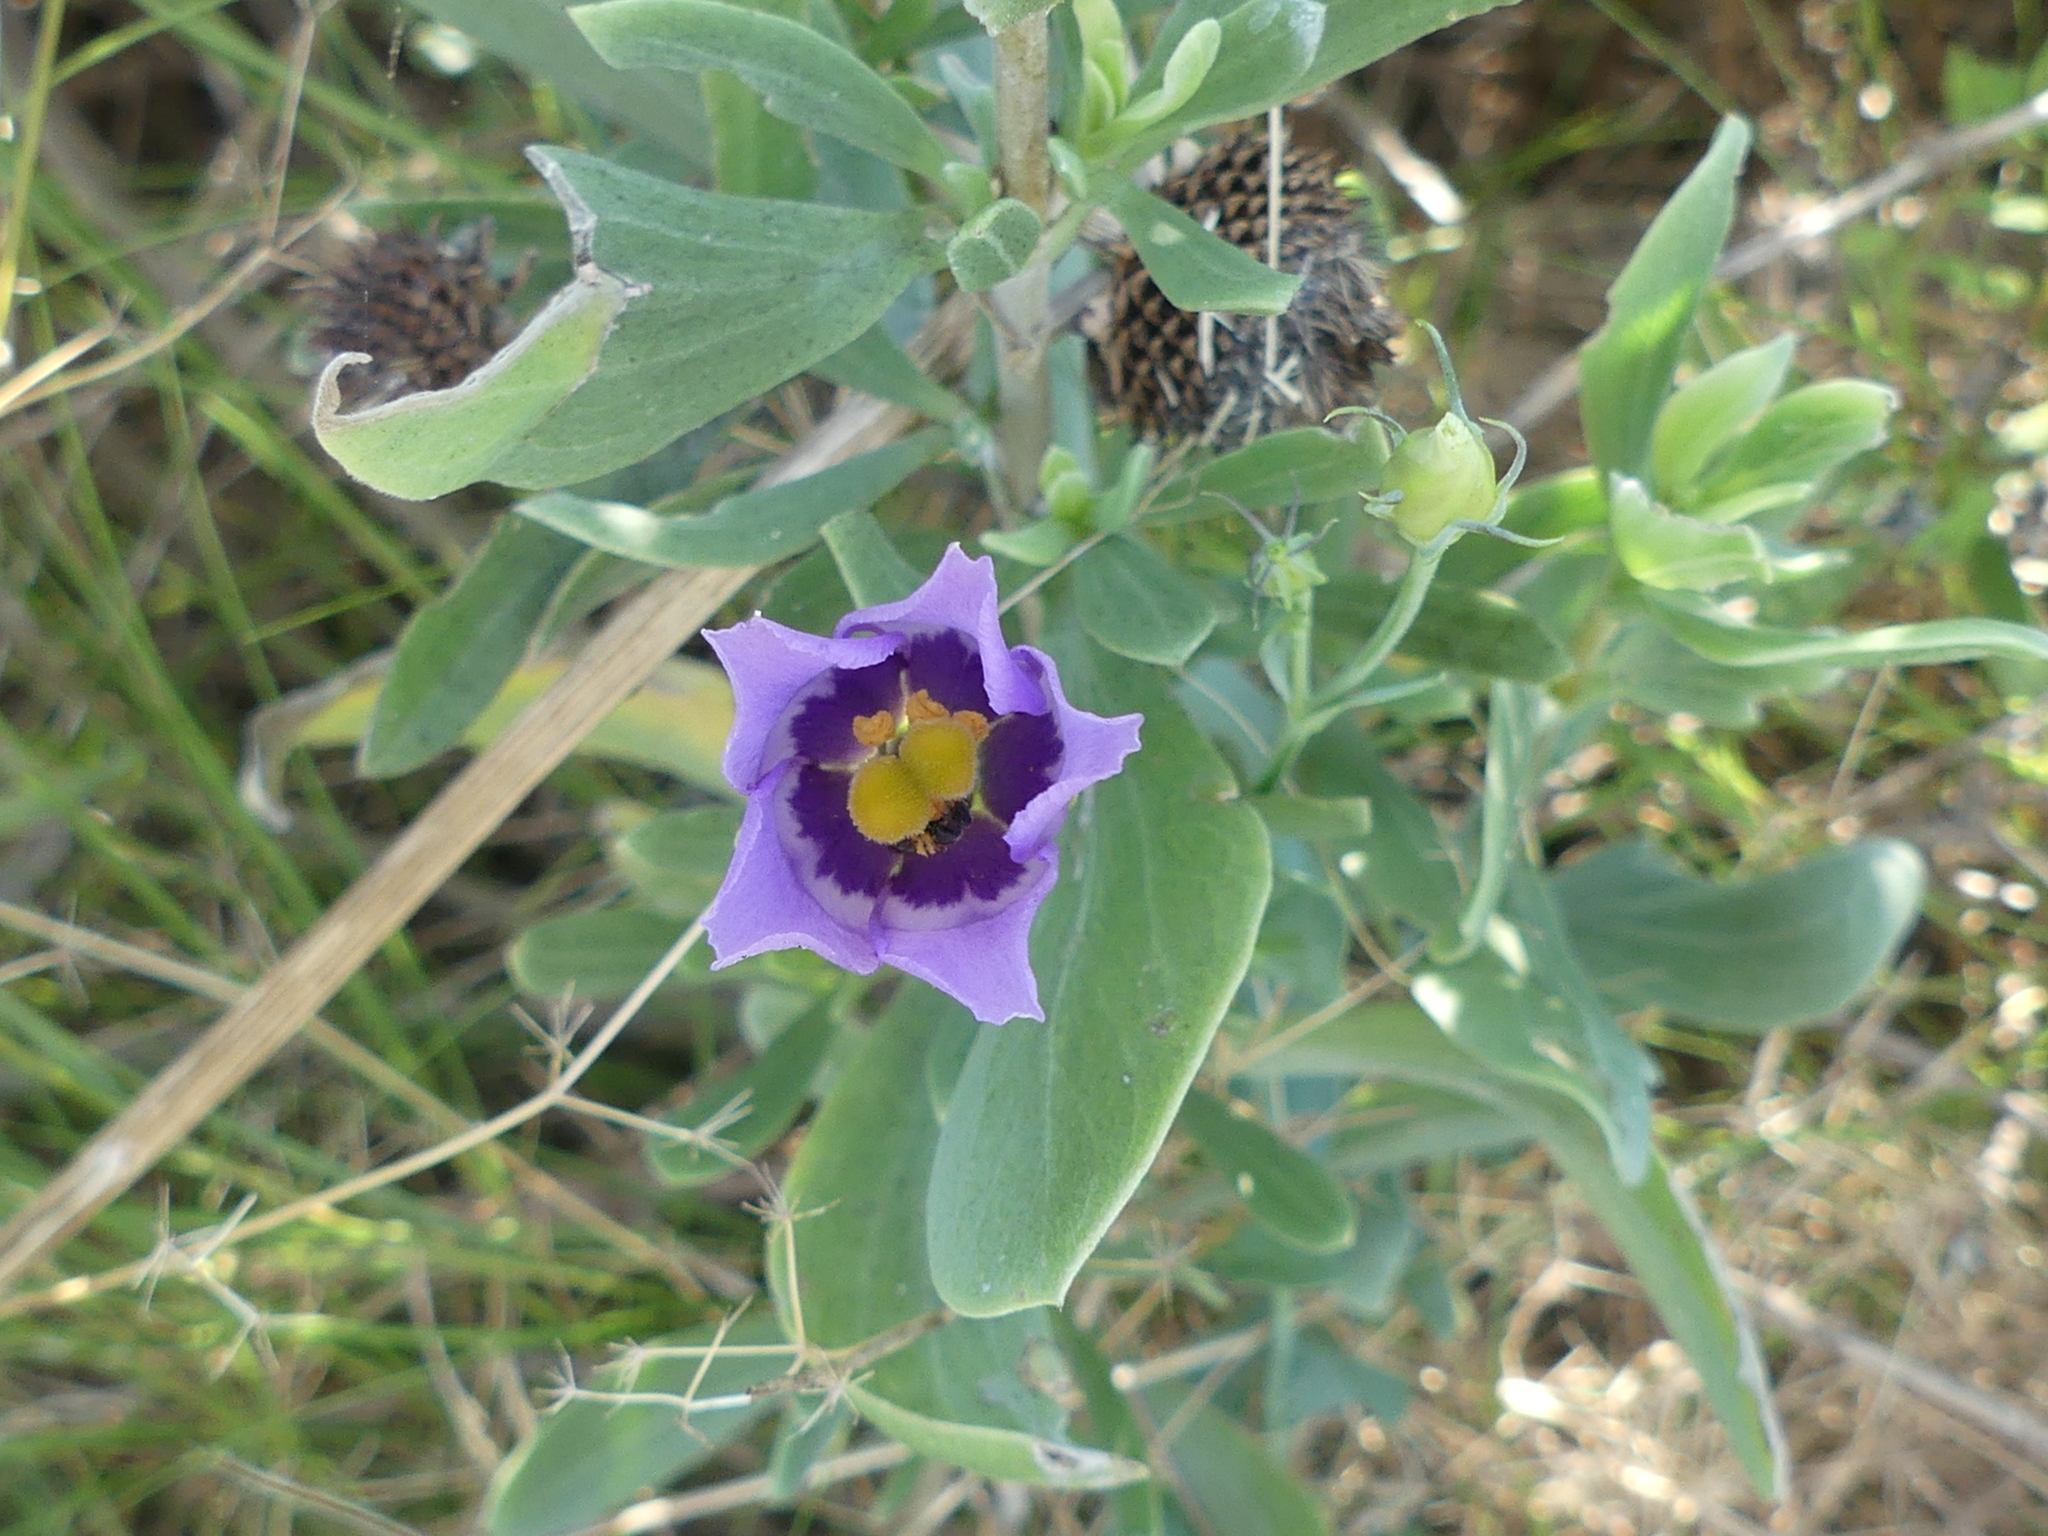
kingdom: Plantae
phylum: Tracheophyta
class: Magnoliopsida
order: Gentianales
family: Gentianaceae
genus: Eustoma
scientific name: Eustoma exaltatum
